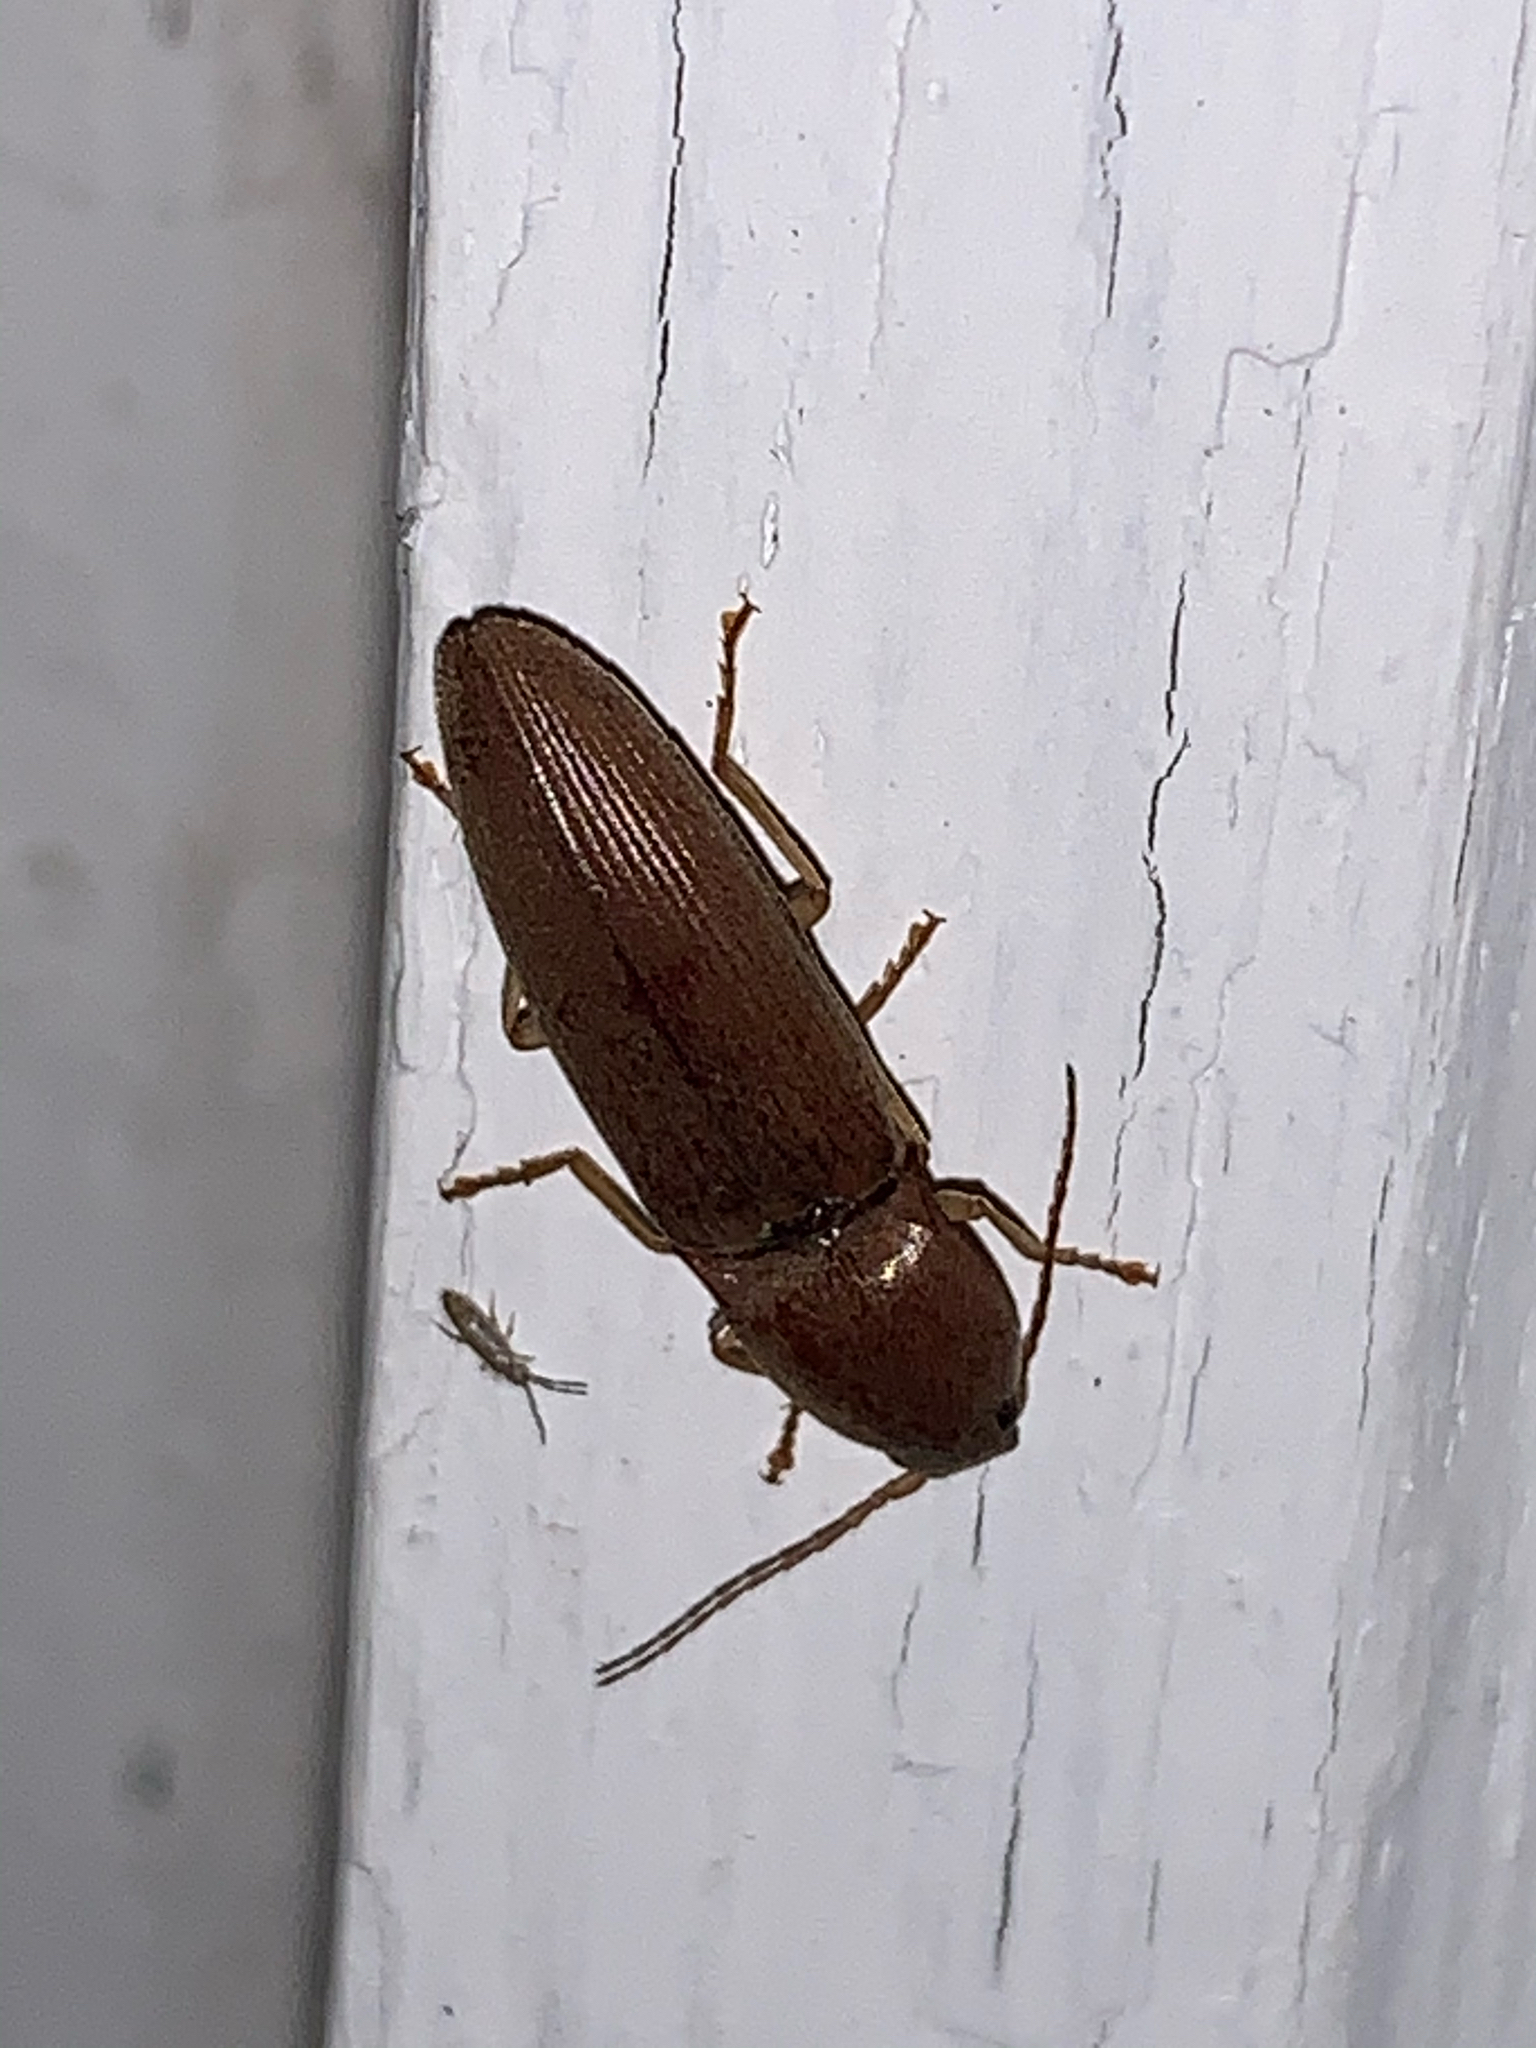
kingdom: Animalia
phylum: Arthropoda
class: Insecta
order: Coleoptera
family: Elateridae
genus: Monocrepidius
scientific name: Monocrepidius lividus
